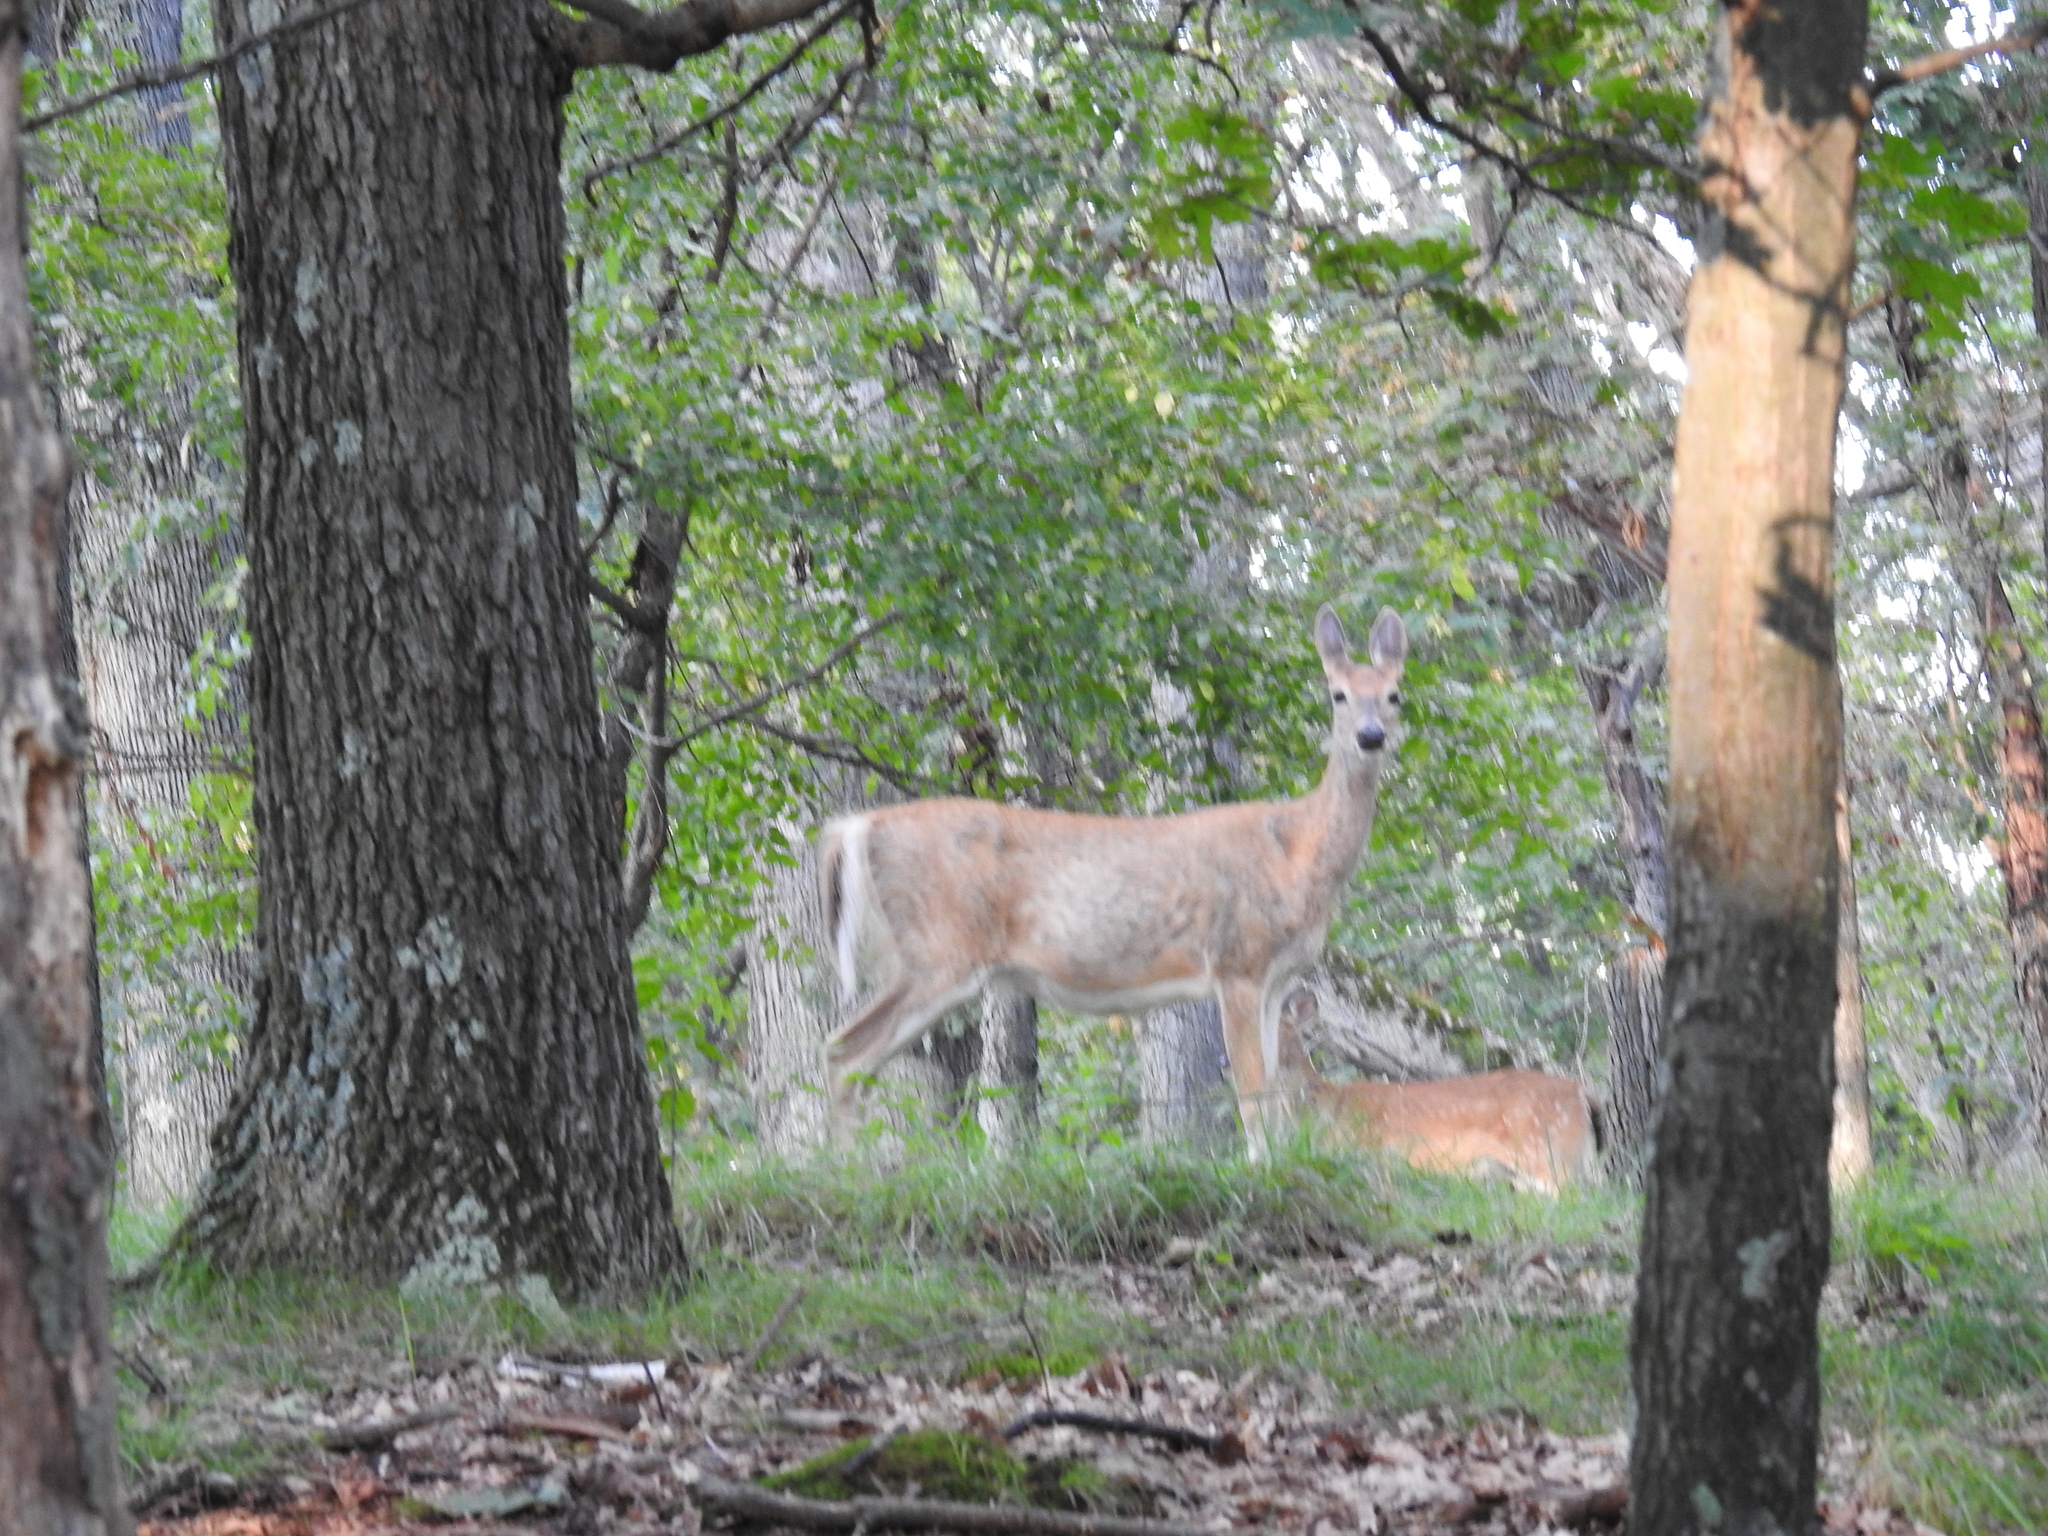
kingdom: Animalia
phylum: Chordata
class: Mammalia
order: Artiodactyla
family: Cervidae
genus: Odocoileus
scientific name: Odocoileus virginianus
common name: White-tailed deer
